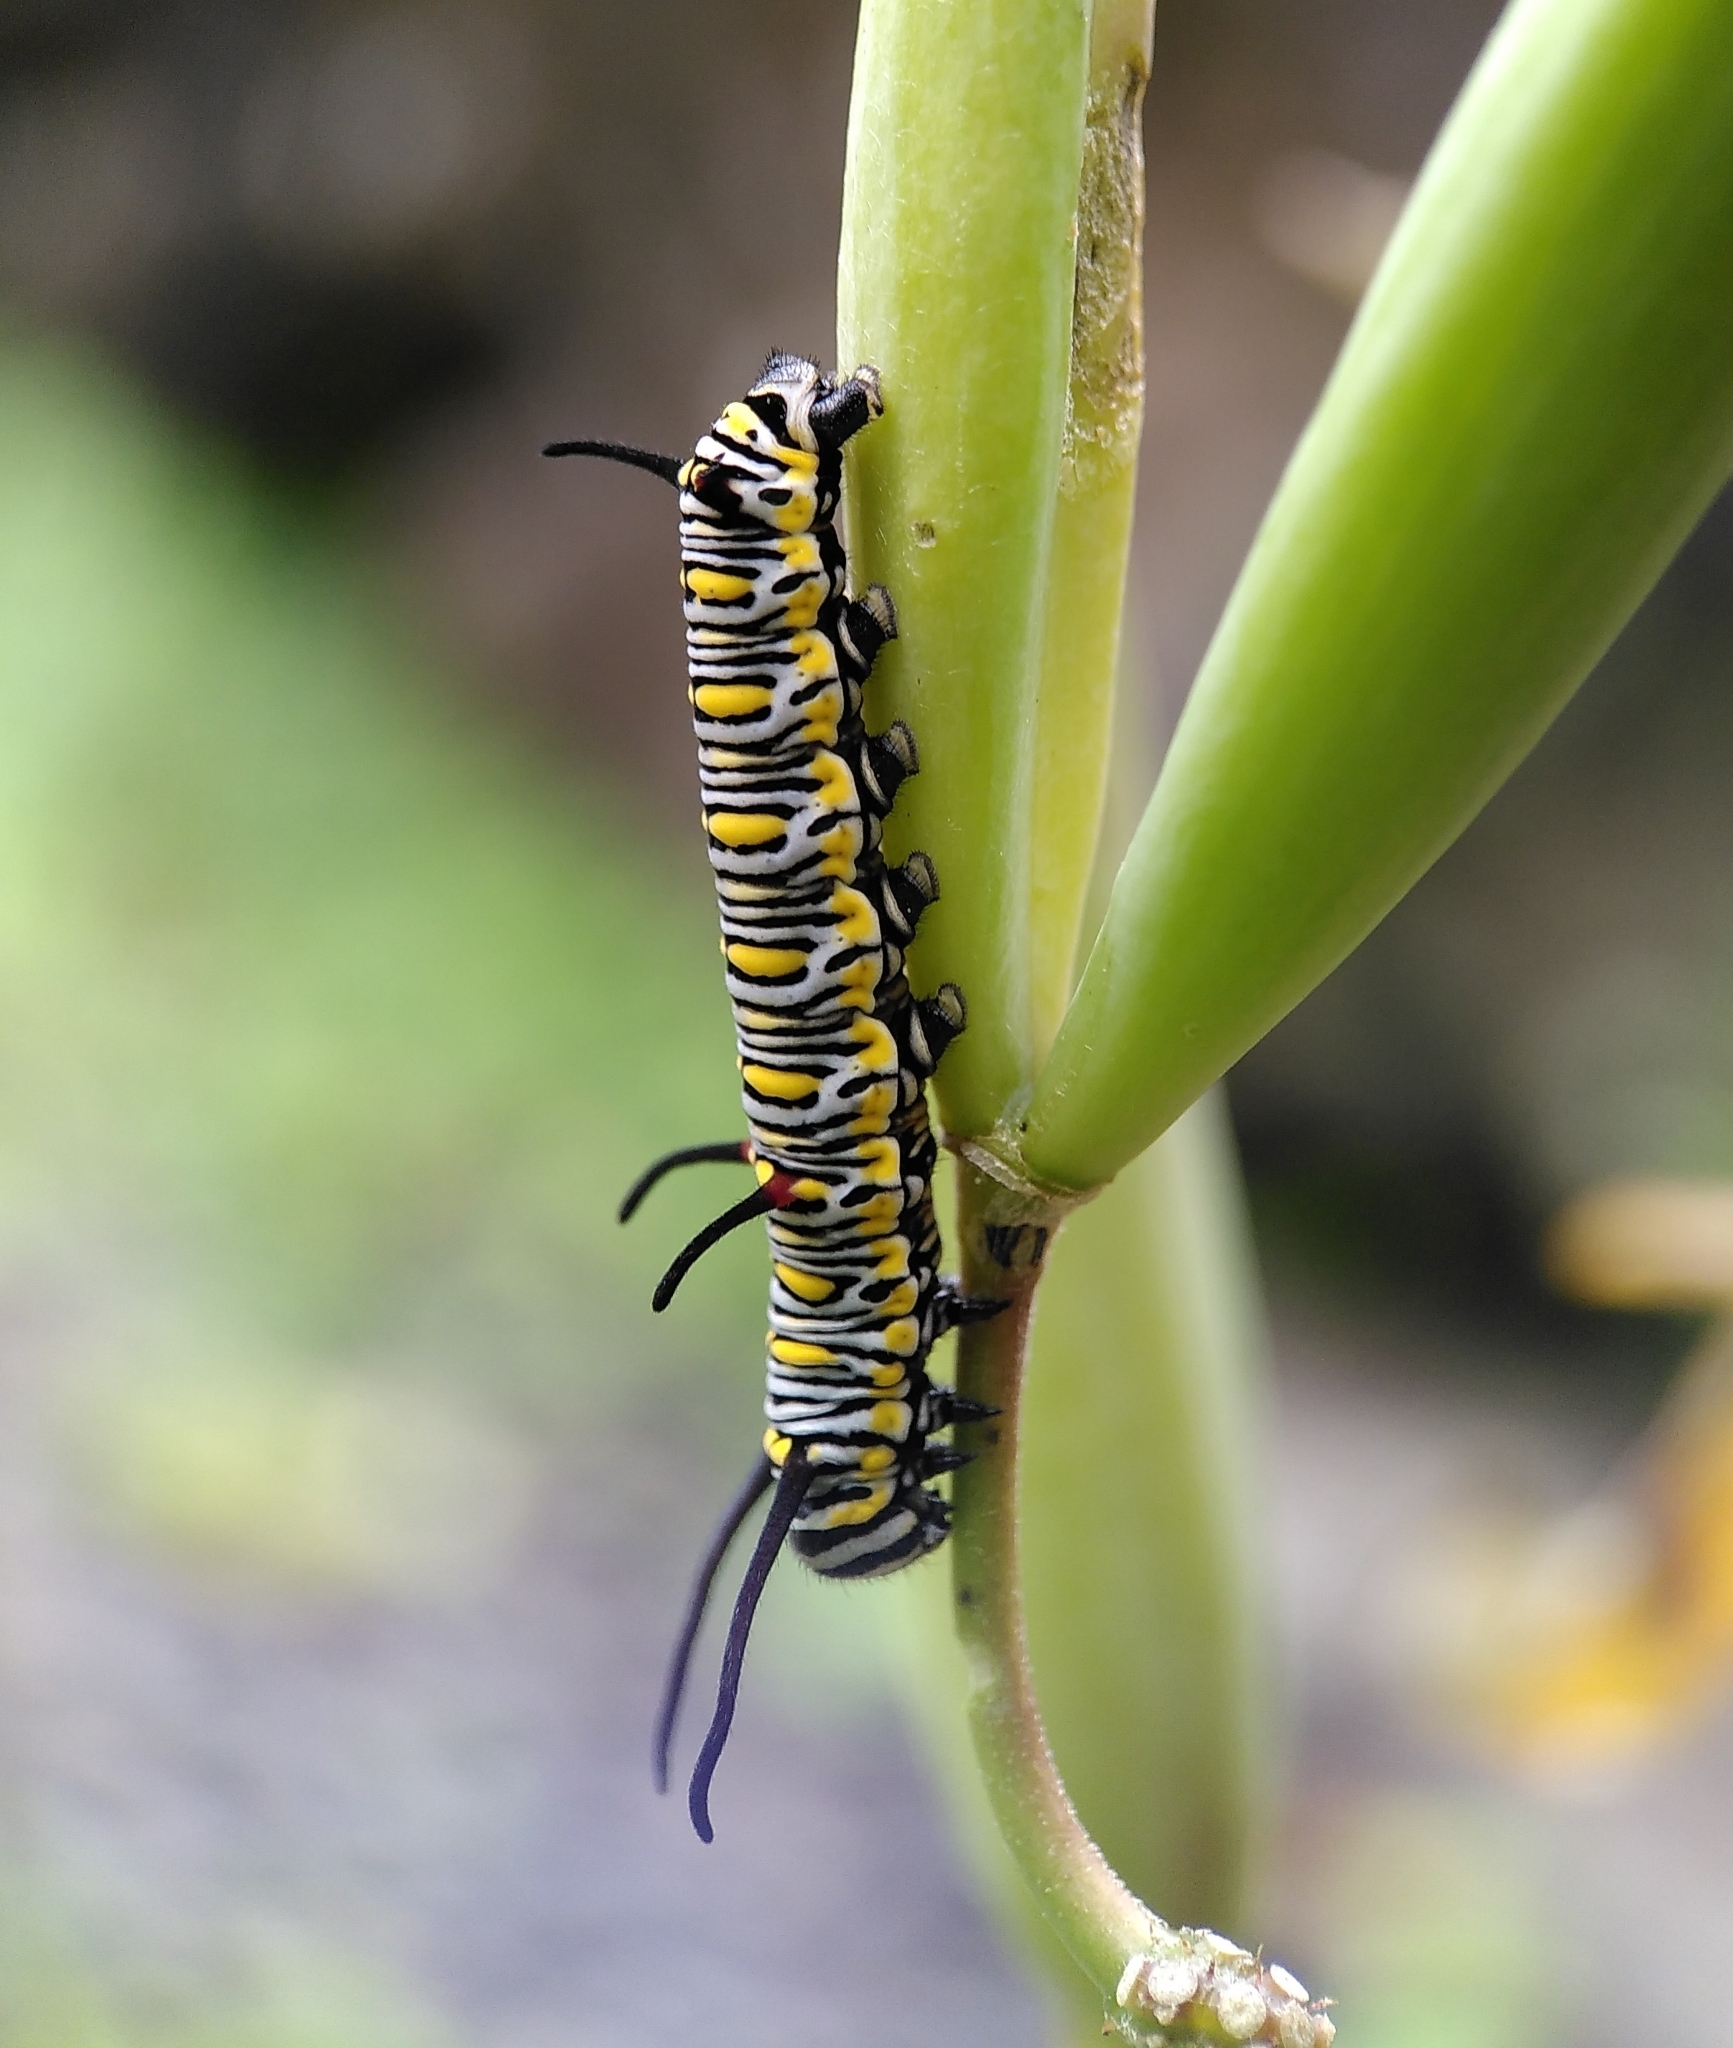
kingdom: Animalia
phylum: Arthropoda
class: Insecta
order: Lepidoptera
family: Nymphalidae
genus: Danaus
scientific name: Danaus chrysippus
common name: Plain tiger
